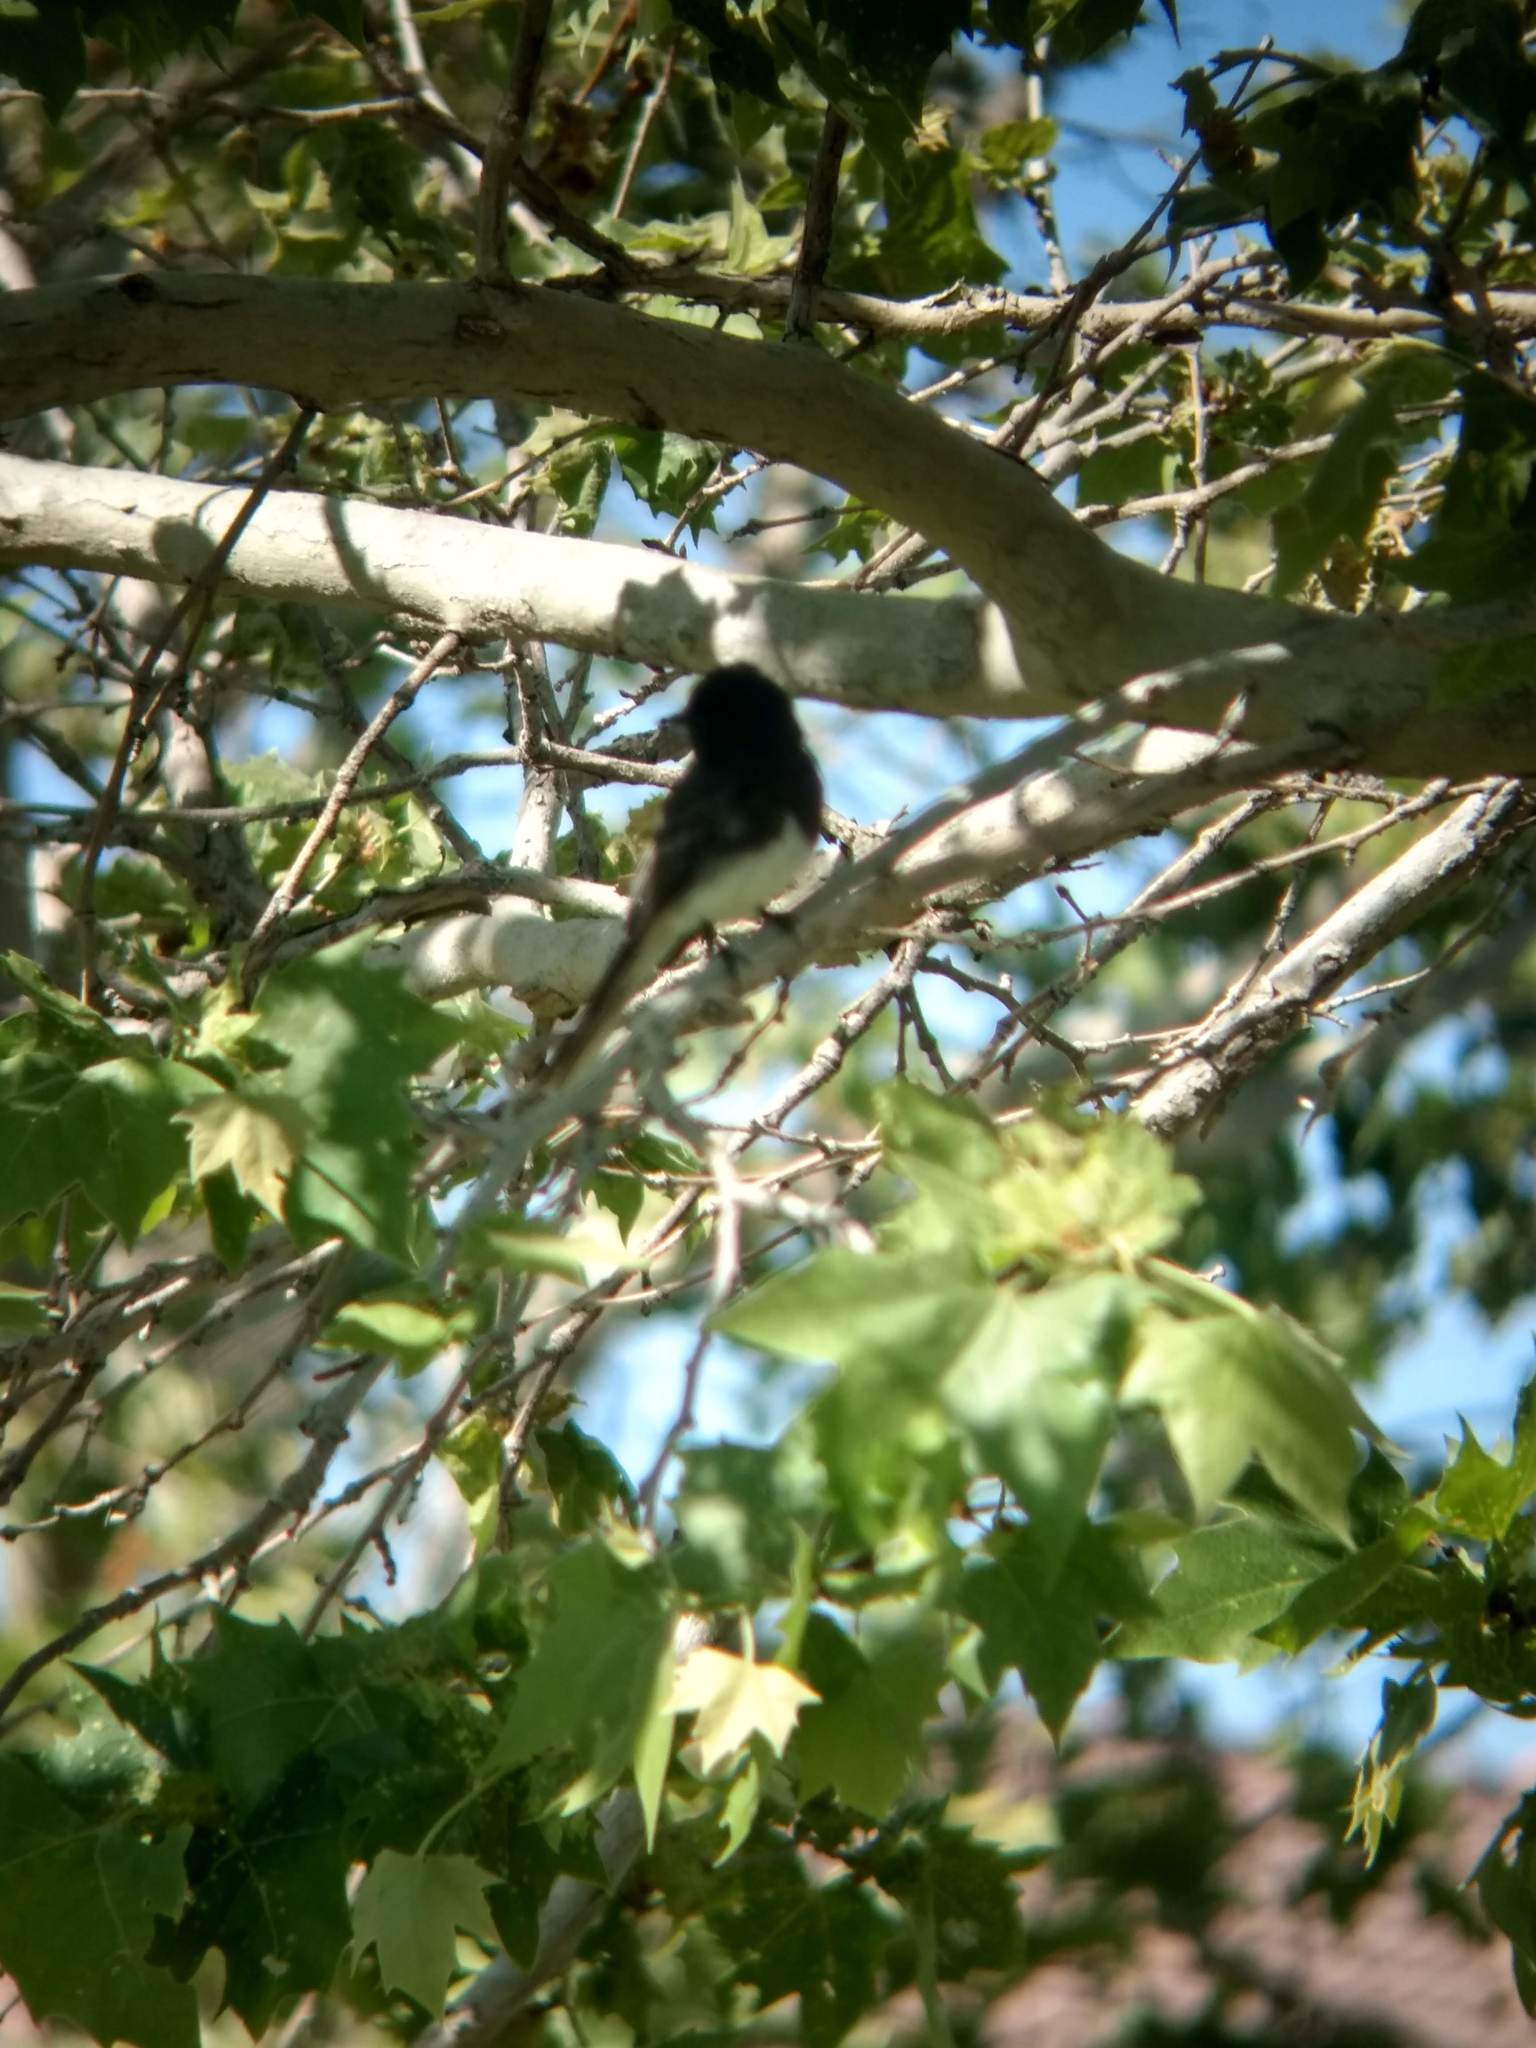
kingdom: Animalia
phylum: Chordata
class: Aves
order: Passeriformes
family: Tyrannidae
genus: Sayornis
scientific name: Sayornis nigricans
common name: Black phoebe
